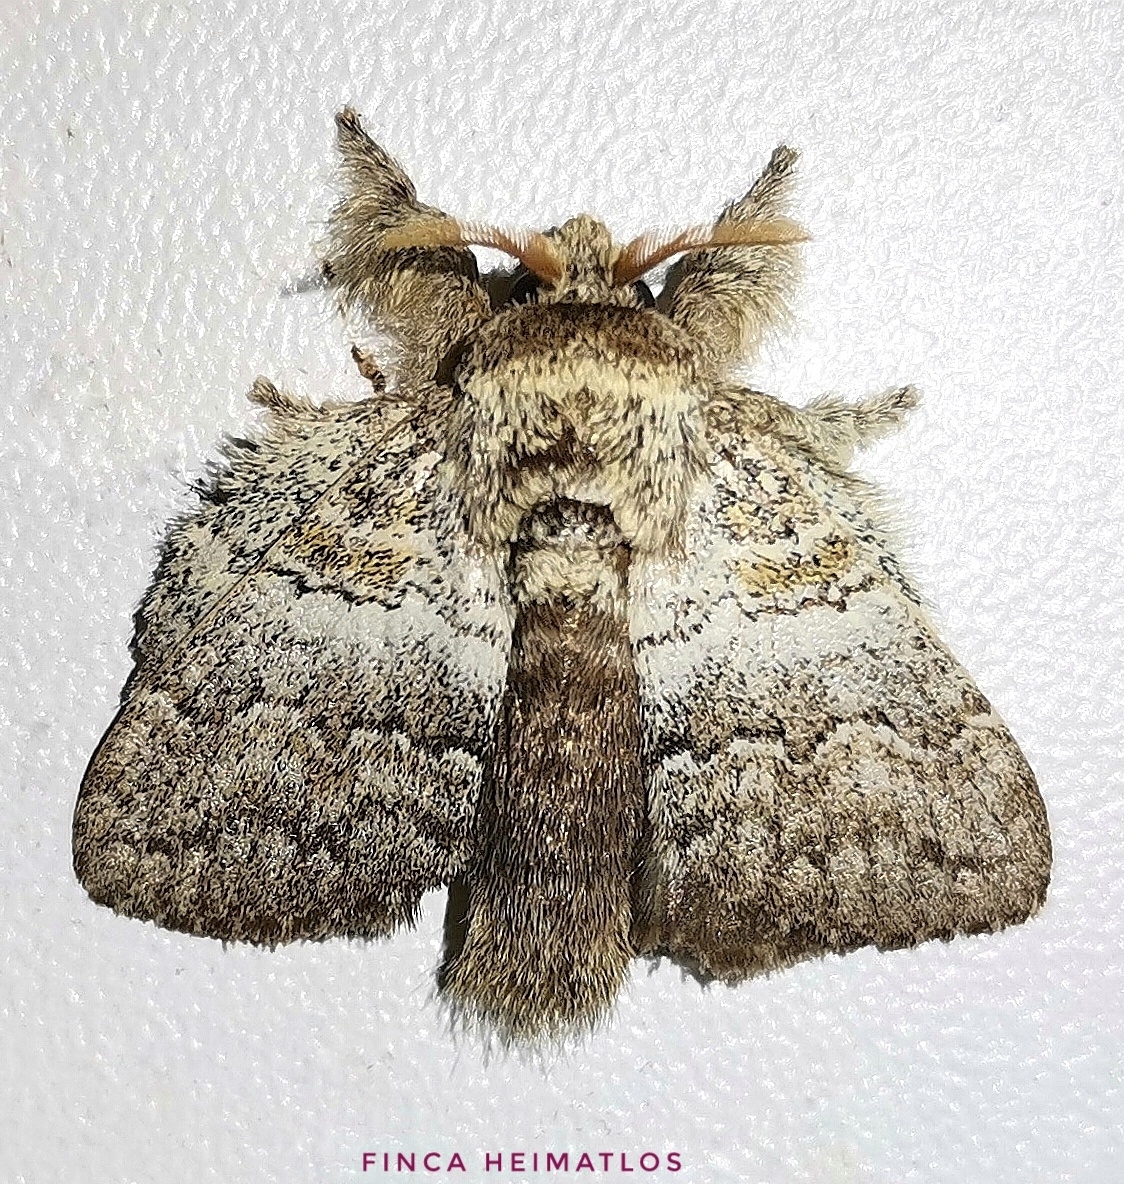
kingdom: Animalia
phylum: Arthropoda
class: Insecta
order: Lepidoptera
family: Lasiocampidae
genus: Euglyphis
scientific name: Euglyphis lanea
